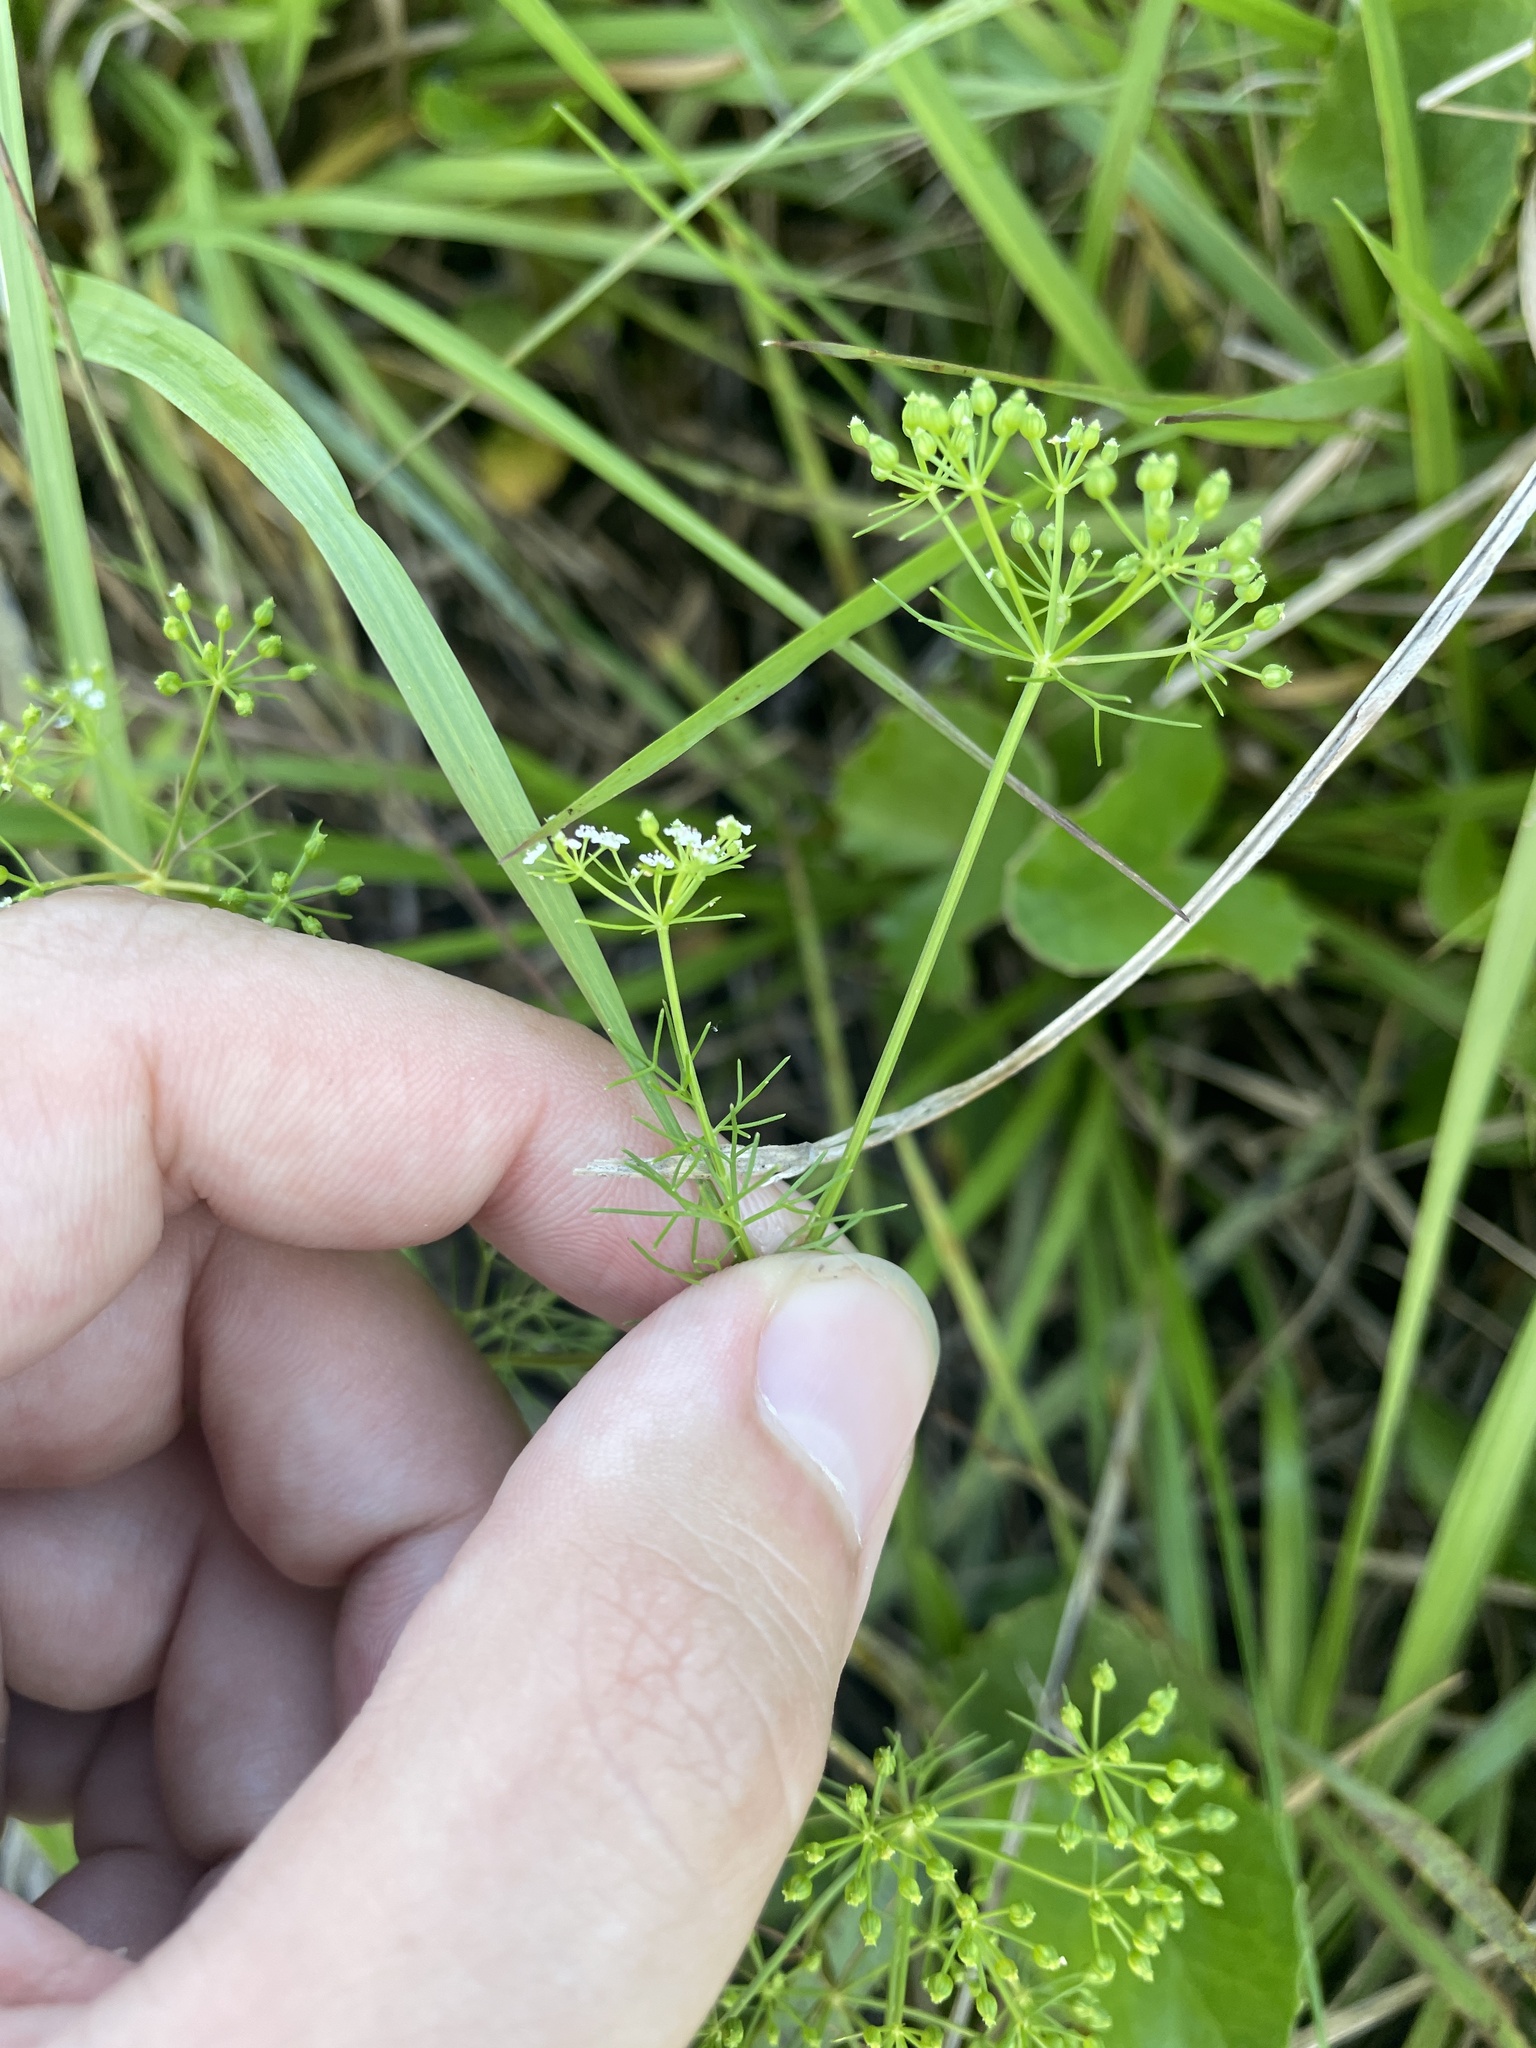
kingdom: Plantae
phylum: Tracheophyta
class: Magnoliopsida
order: Apiales
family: Apiaceae
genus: Ptilimnium
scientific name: Ptilimnium capillaceum
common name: Herbwilliam
